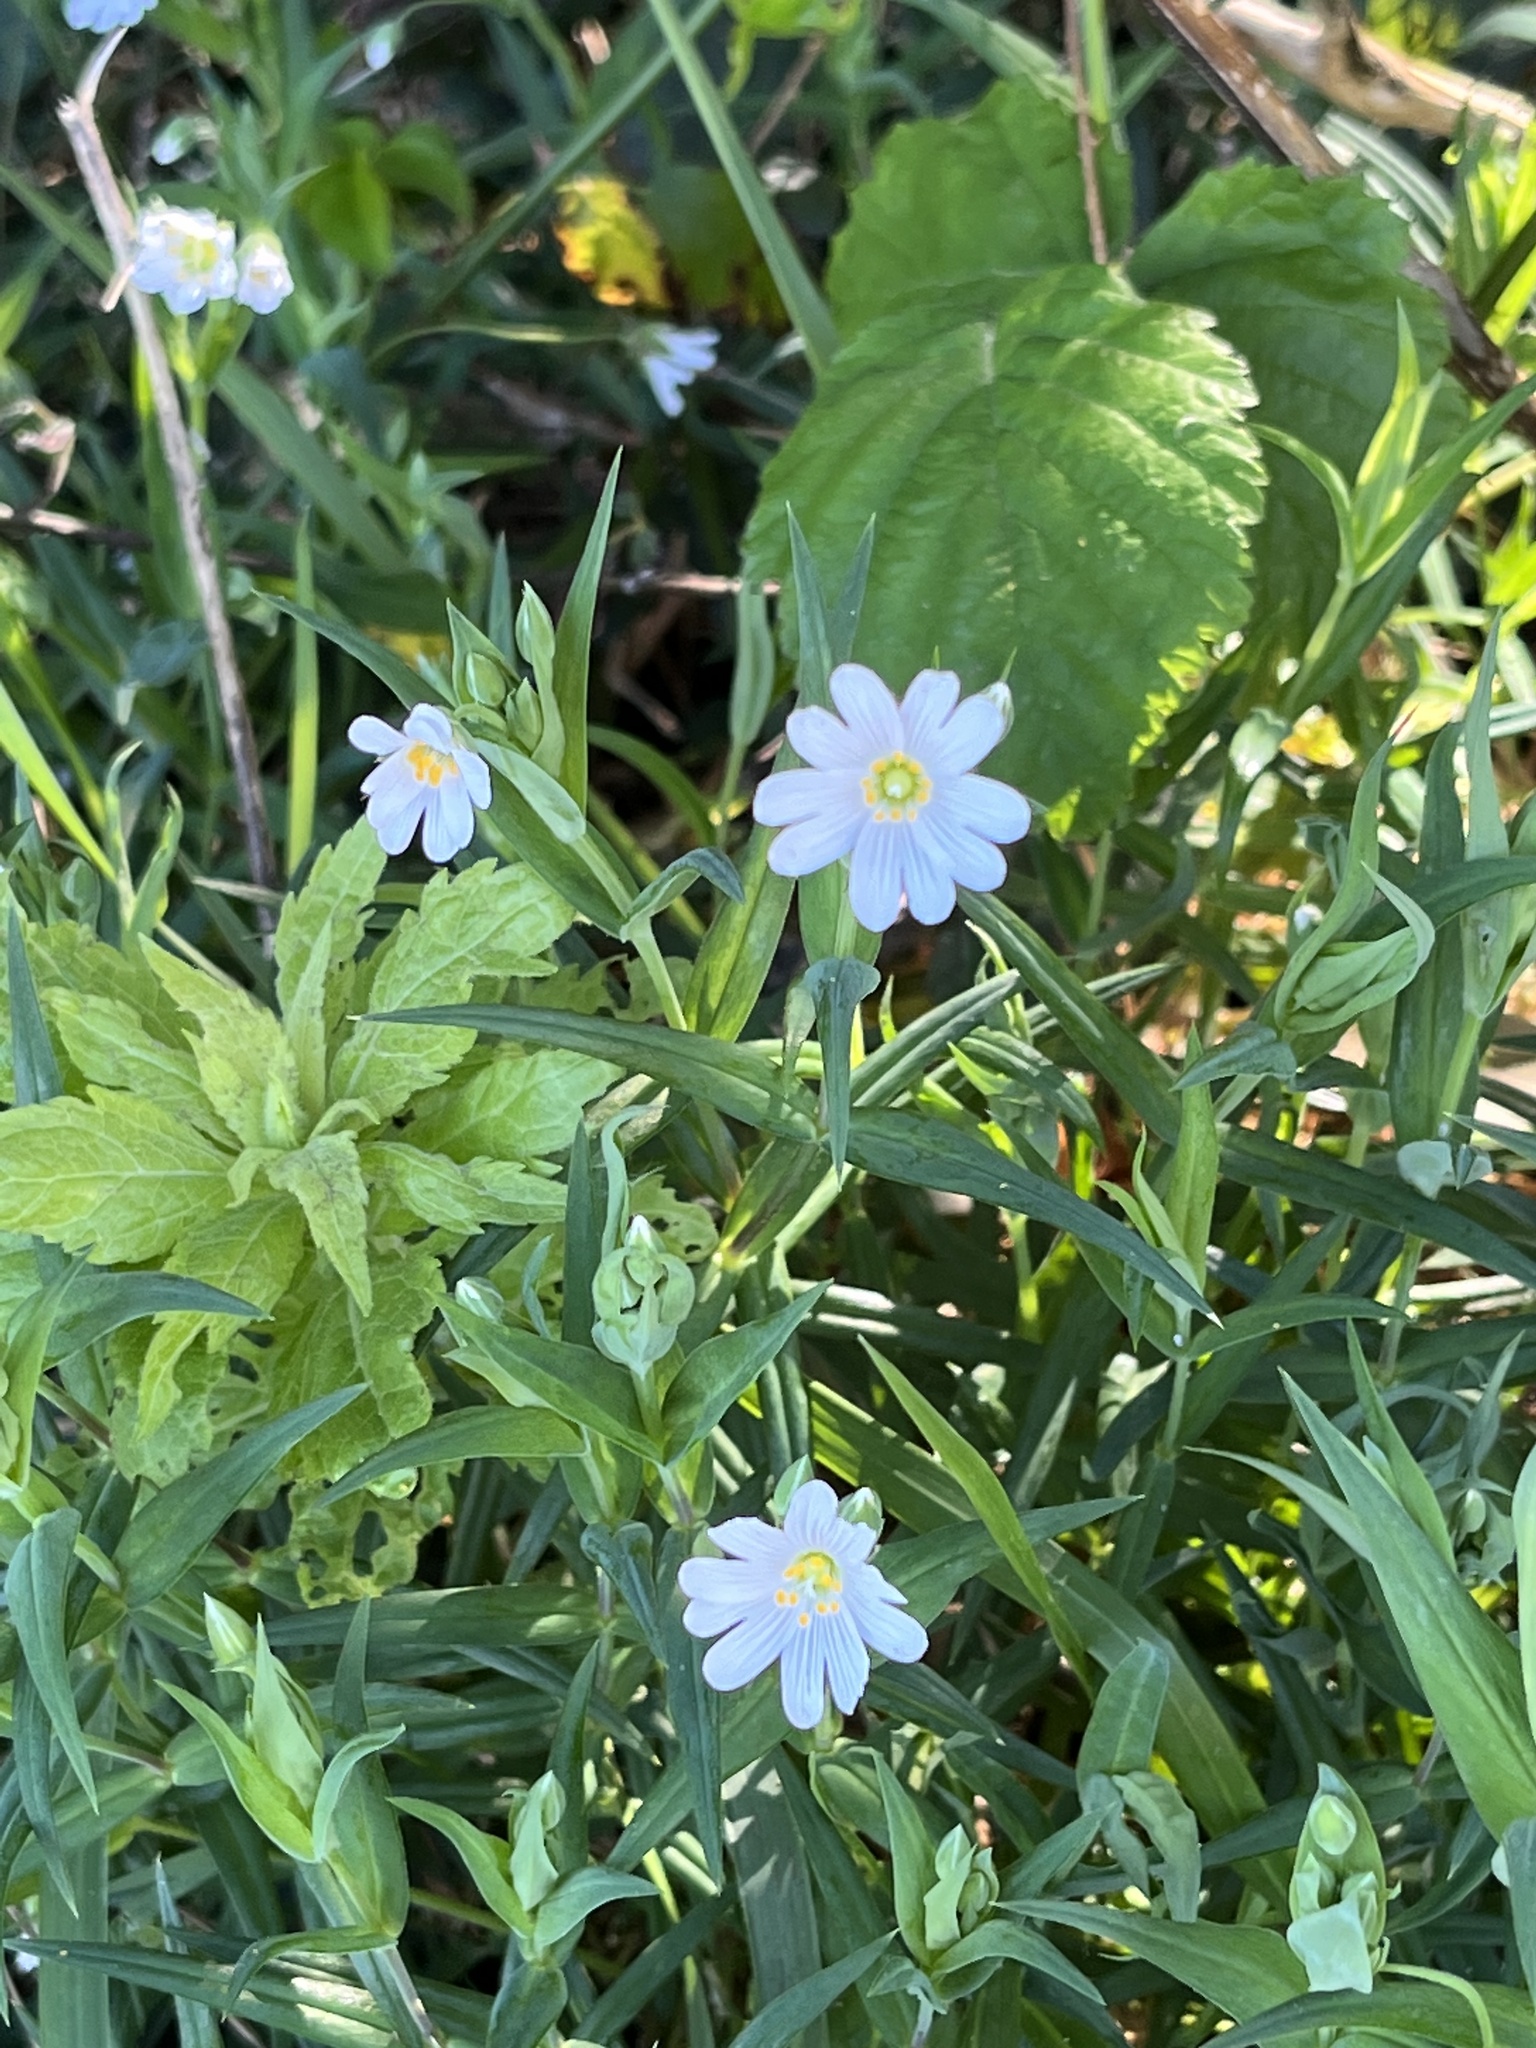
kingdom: Plantae
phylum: Tracheophyta
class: Magnoliopsida
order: Caryophyllales
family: Caryophyllaceae
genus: Rabelera
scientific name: Rabelera holostea
